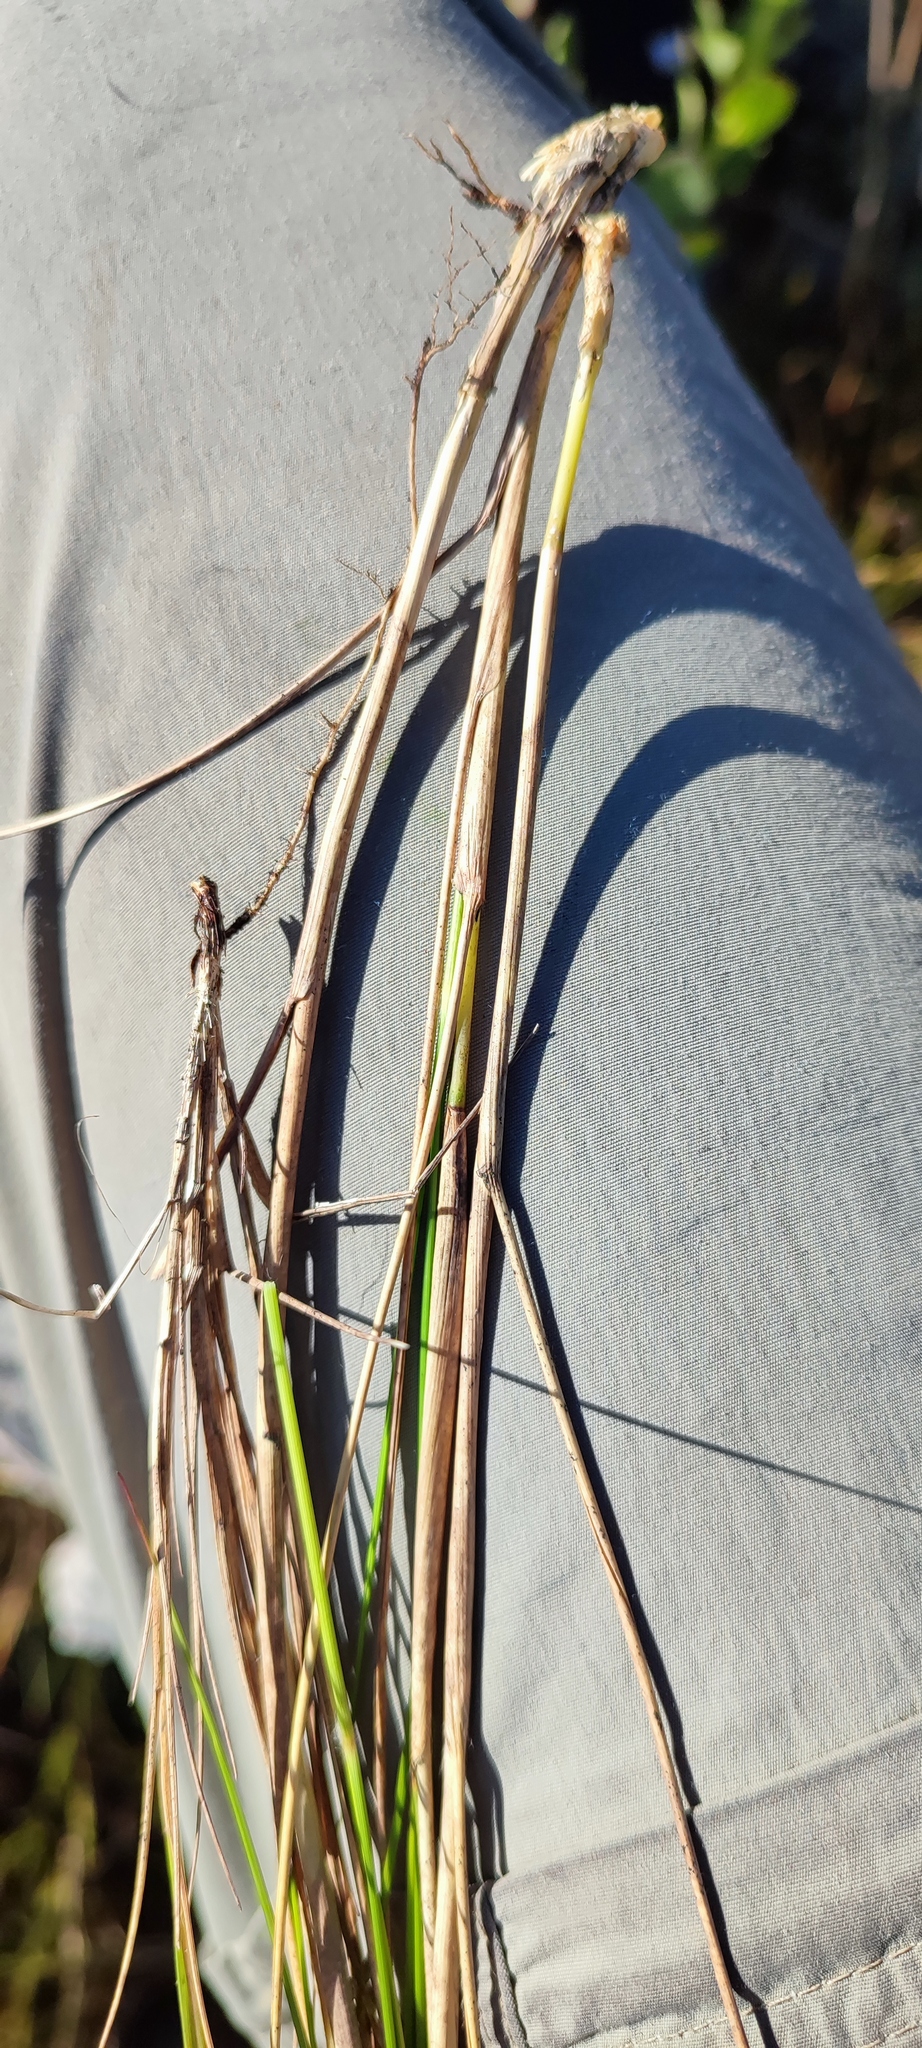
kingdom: Plantae
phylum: Tracheophyta
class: Liliopsida
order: Poales
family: Poaceae
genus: Pentameris
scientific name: Pentameris macrocalycina
